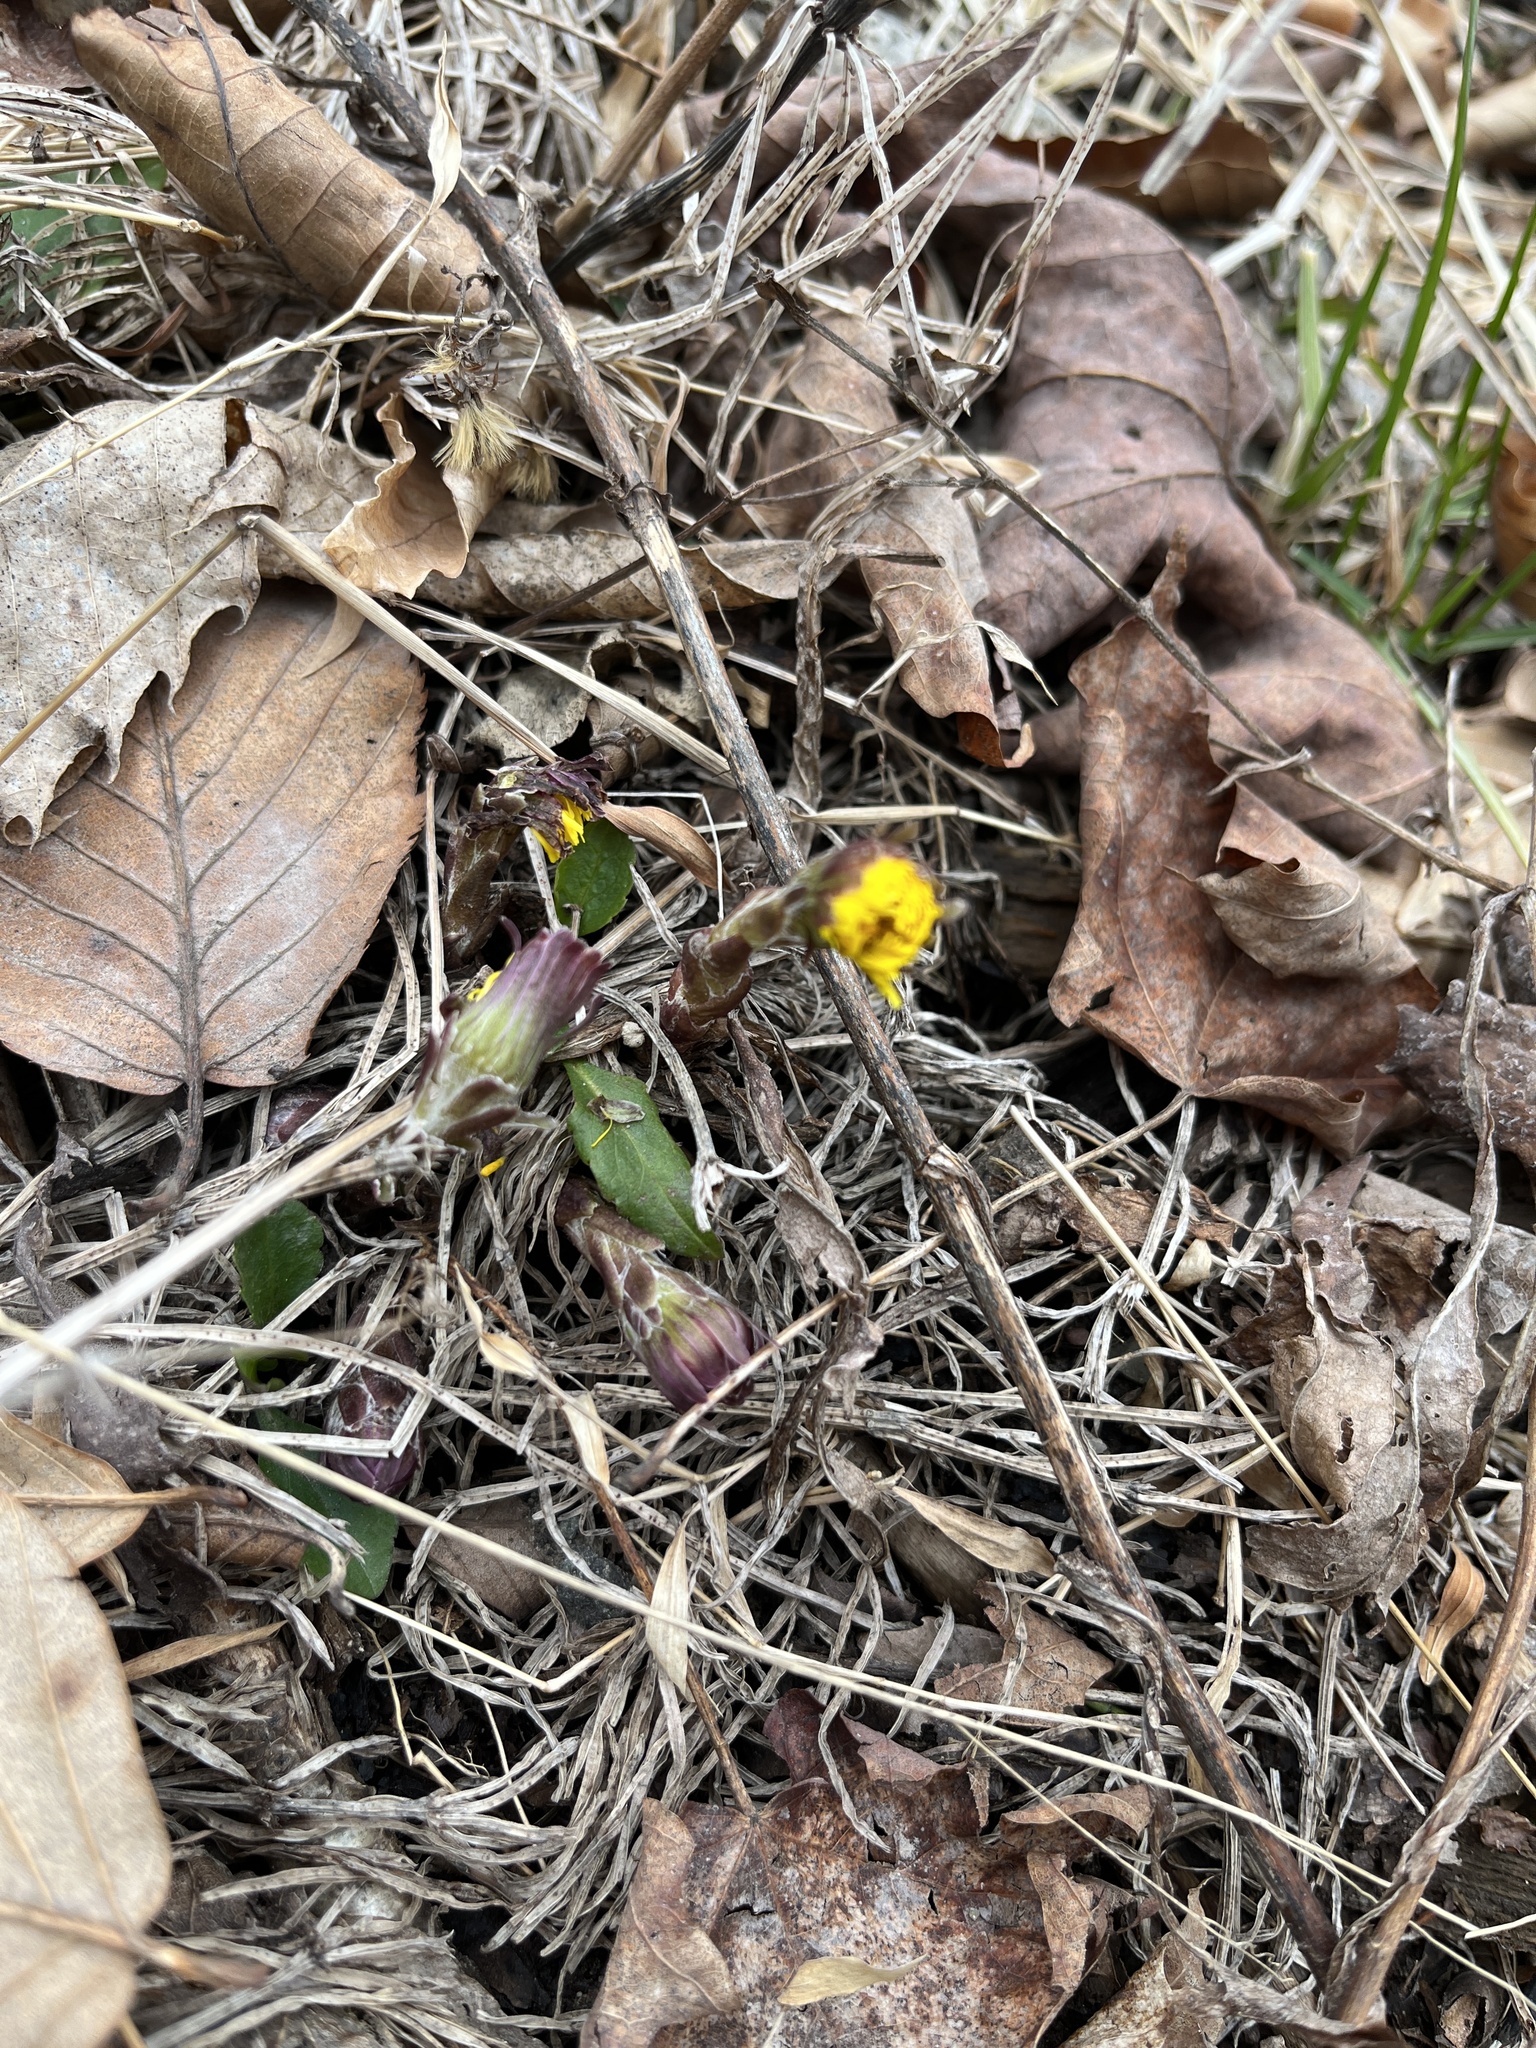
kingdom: Plantae
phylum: Tracheophyta
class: Magnoliopsida
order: Asterales
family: Asteraceae
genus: Tussilago
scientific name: Tussilago farfara
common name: Coltsfoot
